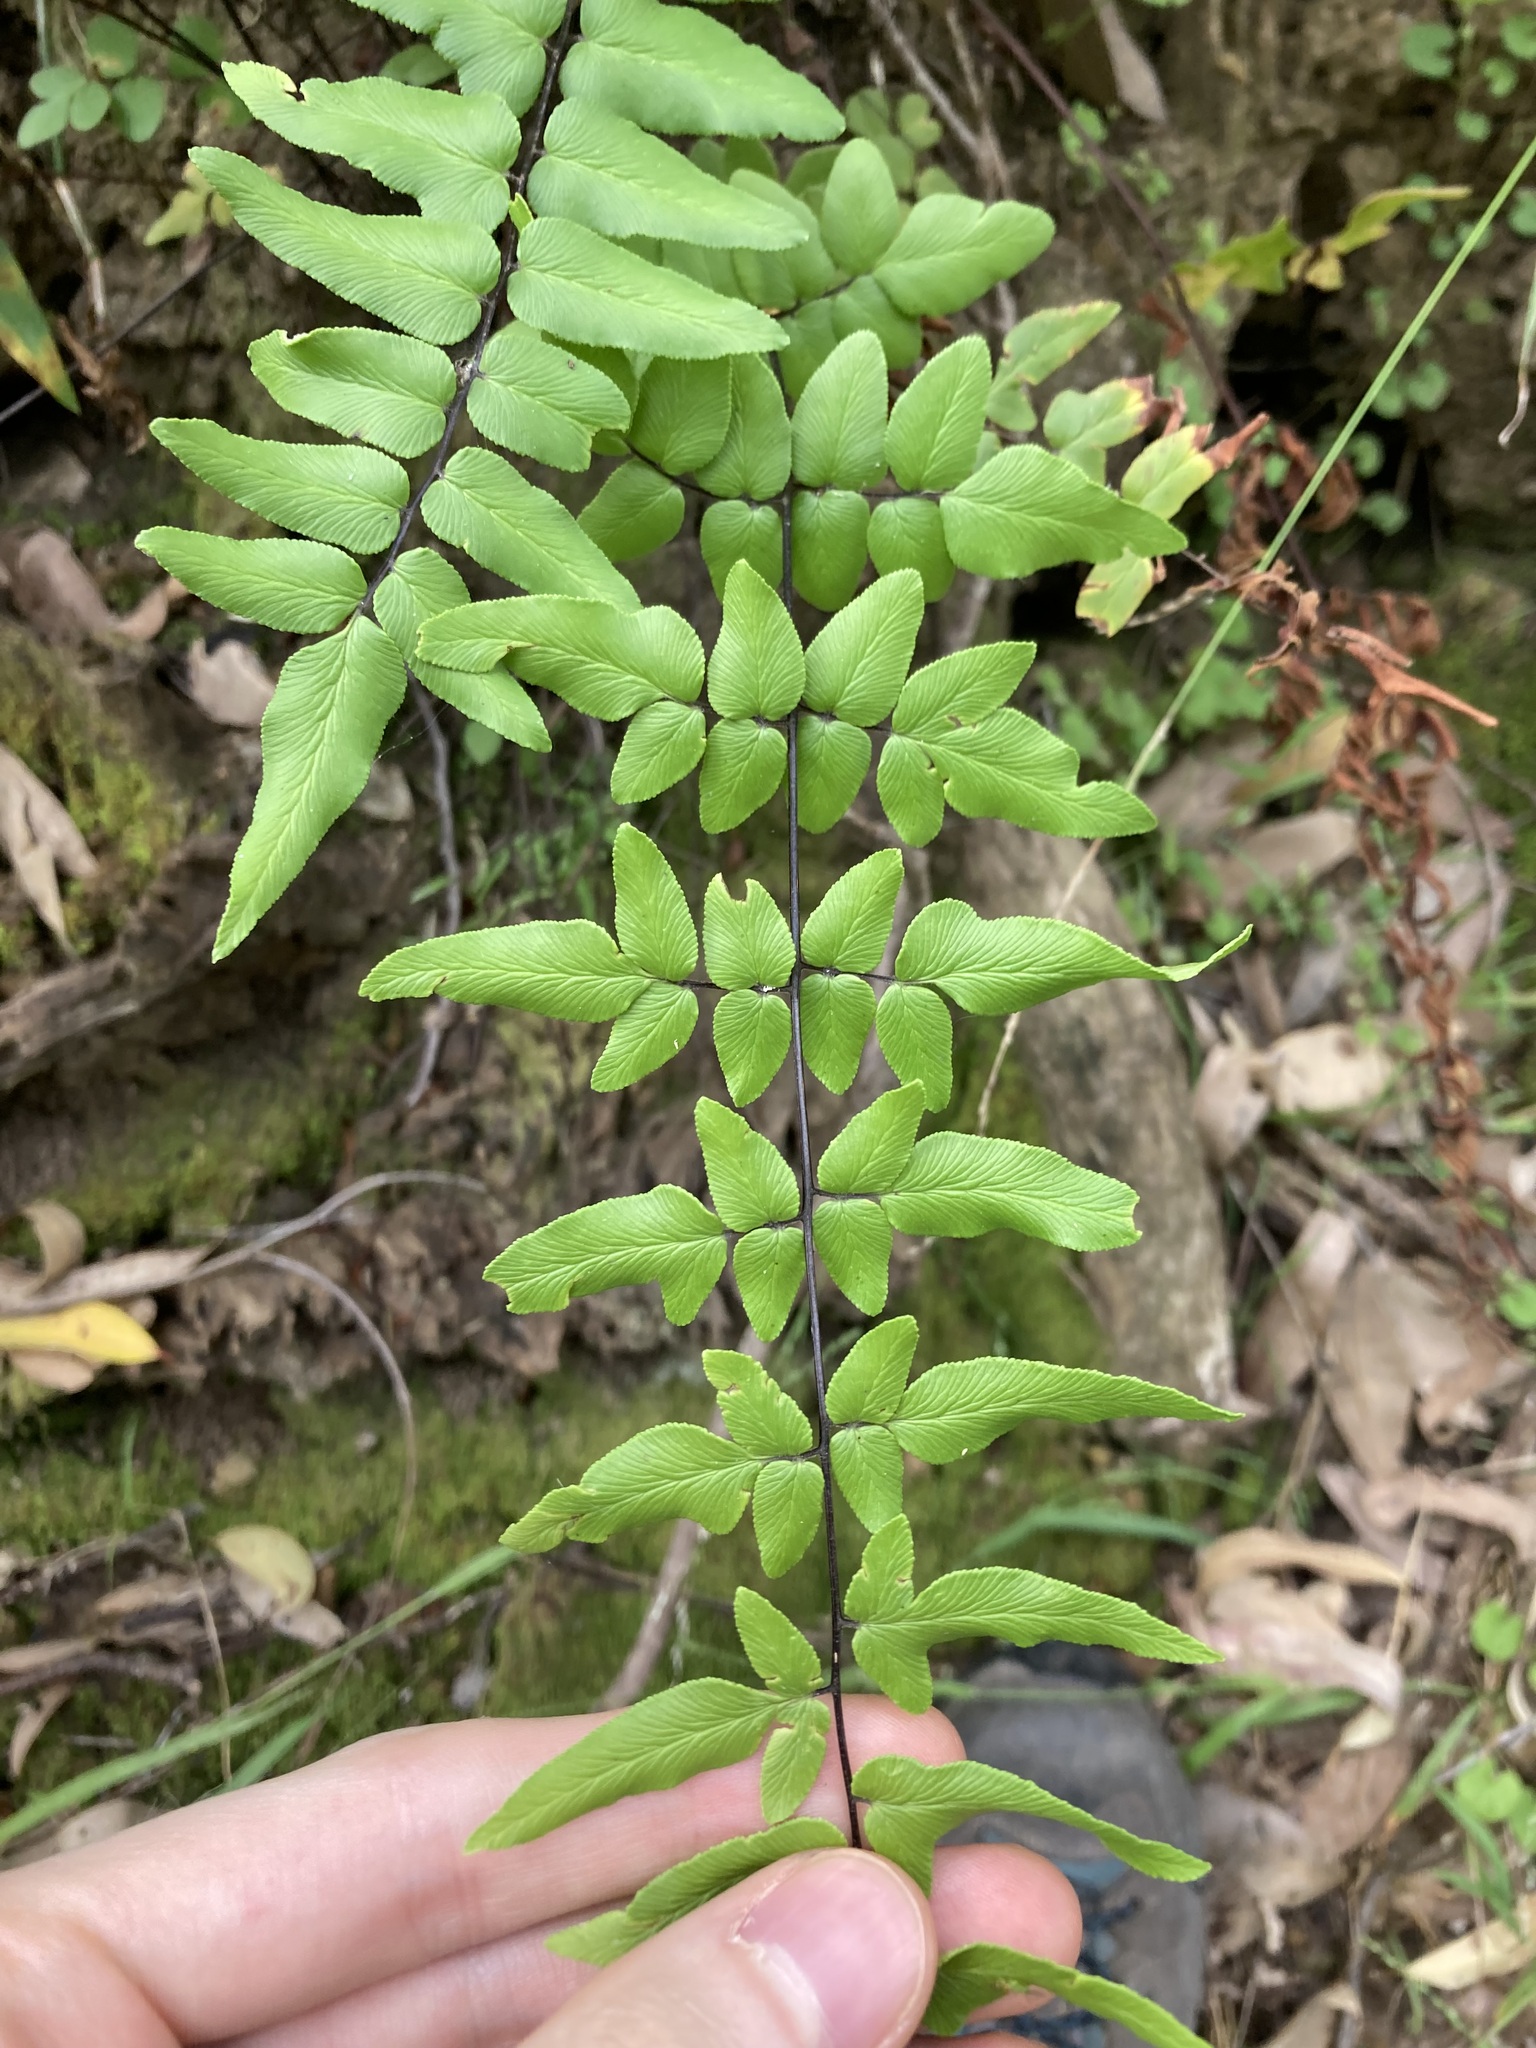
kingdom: Plantae
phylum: Tracheophyta
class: Polypodiopsida
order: Polypodiales
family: Pteridaceae
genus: Cheilanthes
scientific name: Cheilanthes viridis
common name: Green cliffbrake
